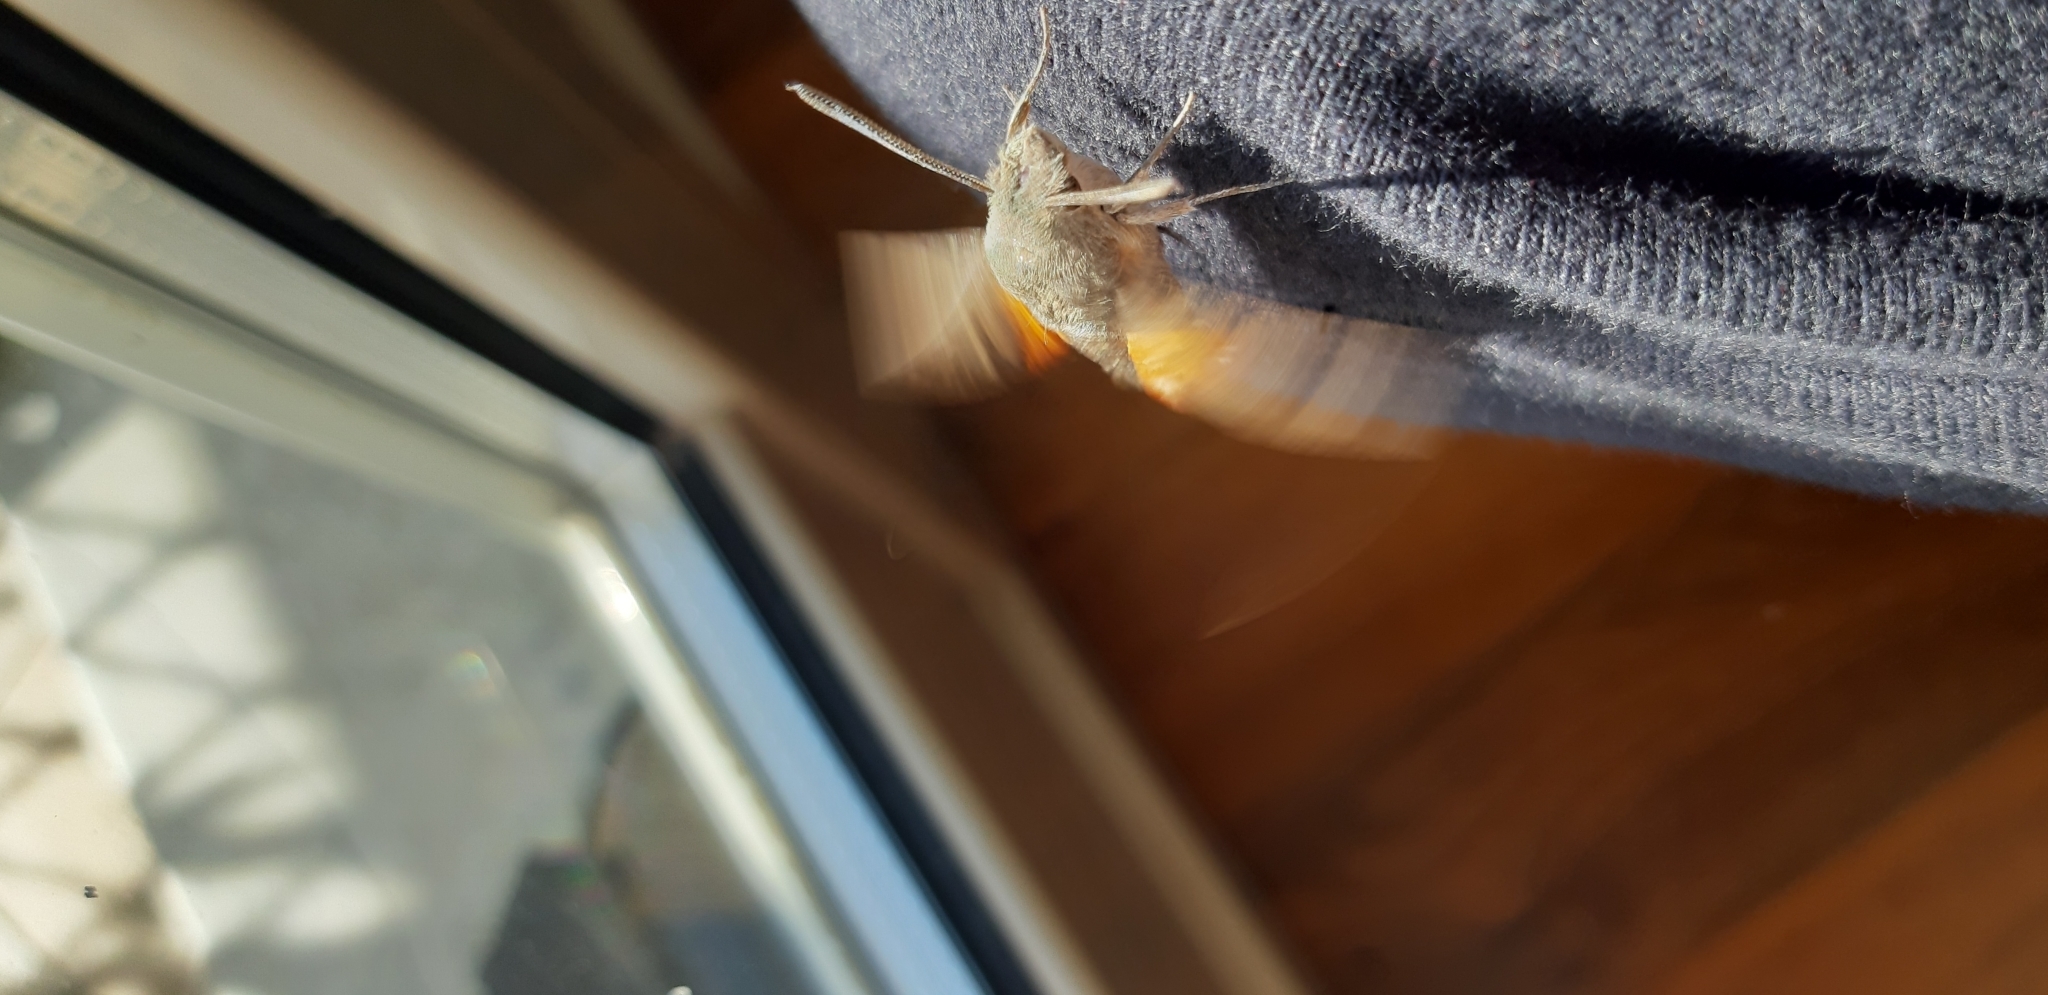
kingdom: Animalia
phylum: Arthropoda
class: Insecta
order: Lepidoptera
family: Sphingidae
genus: Macroglossum
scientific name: Macroglossum stellatarum
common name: Humming-bird hawk-moth
